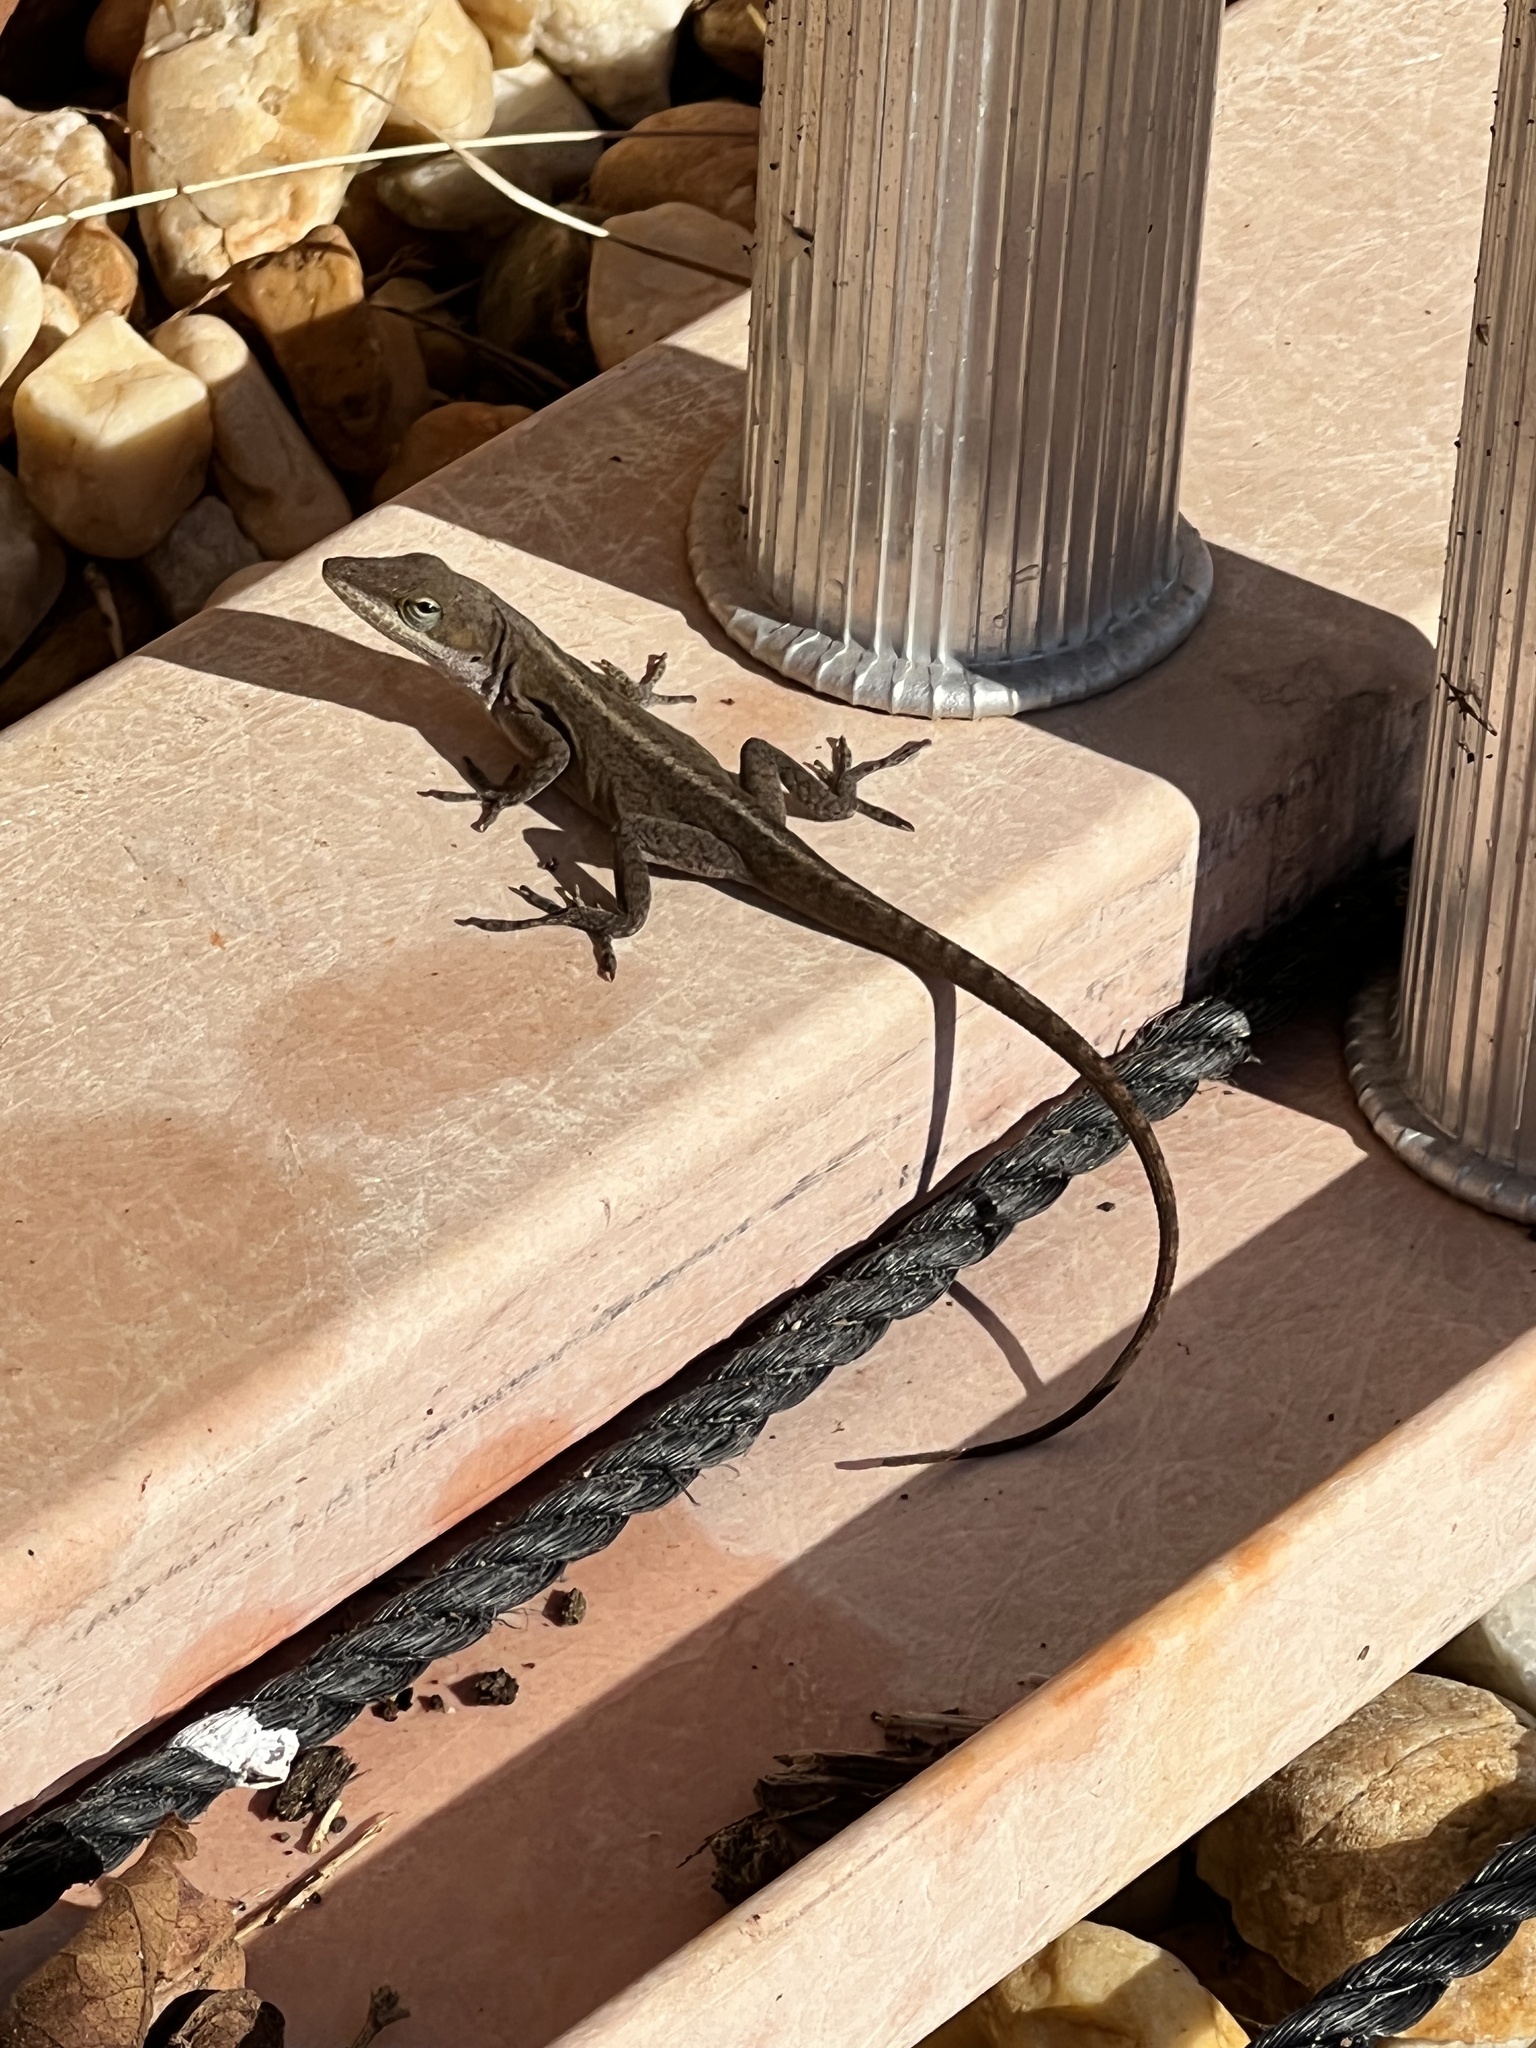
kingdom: Animalia
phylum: Chordata
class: Squamata
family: Dactyloidae
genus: Anolis
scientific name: Anolis carolinensis
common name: Green anole
